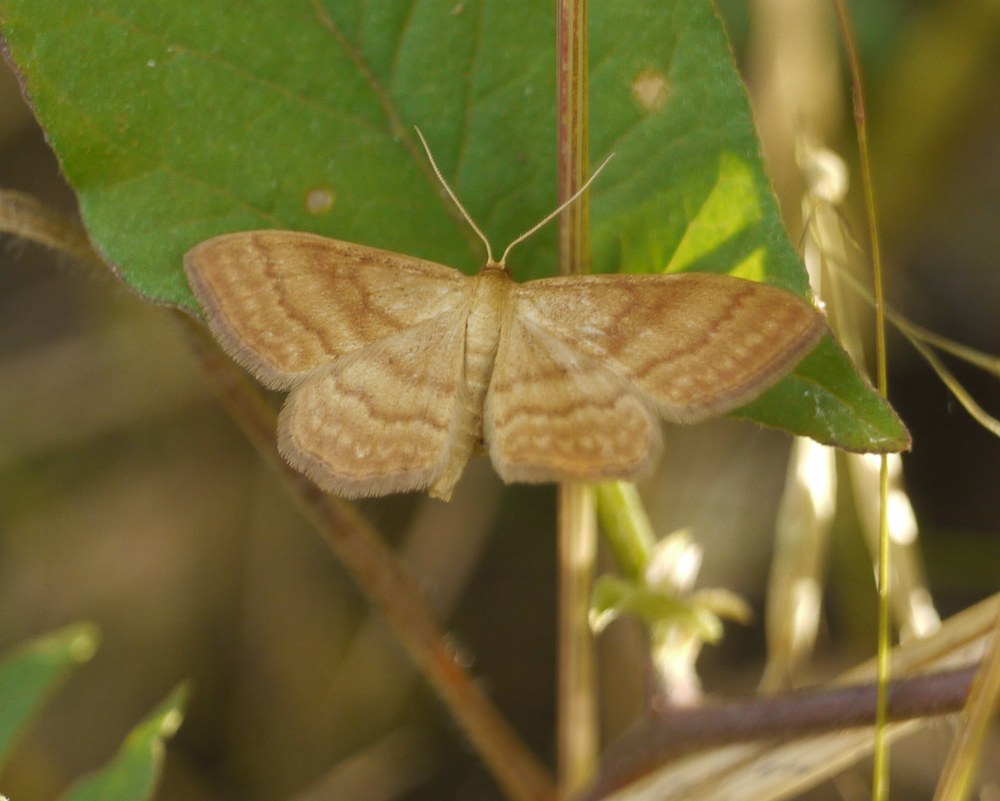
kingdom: Animalia
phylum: Arthropoda
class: Insecta
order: Lepidoptera
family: Geometridae
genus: Idaea
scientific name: Idaea ochrata
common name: Bright wave
